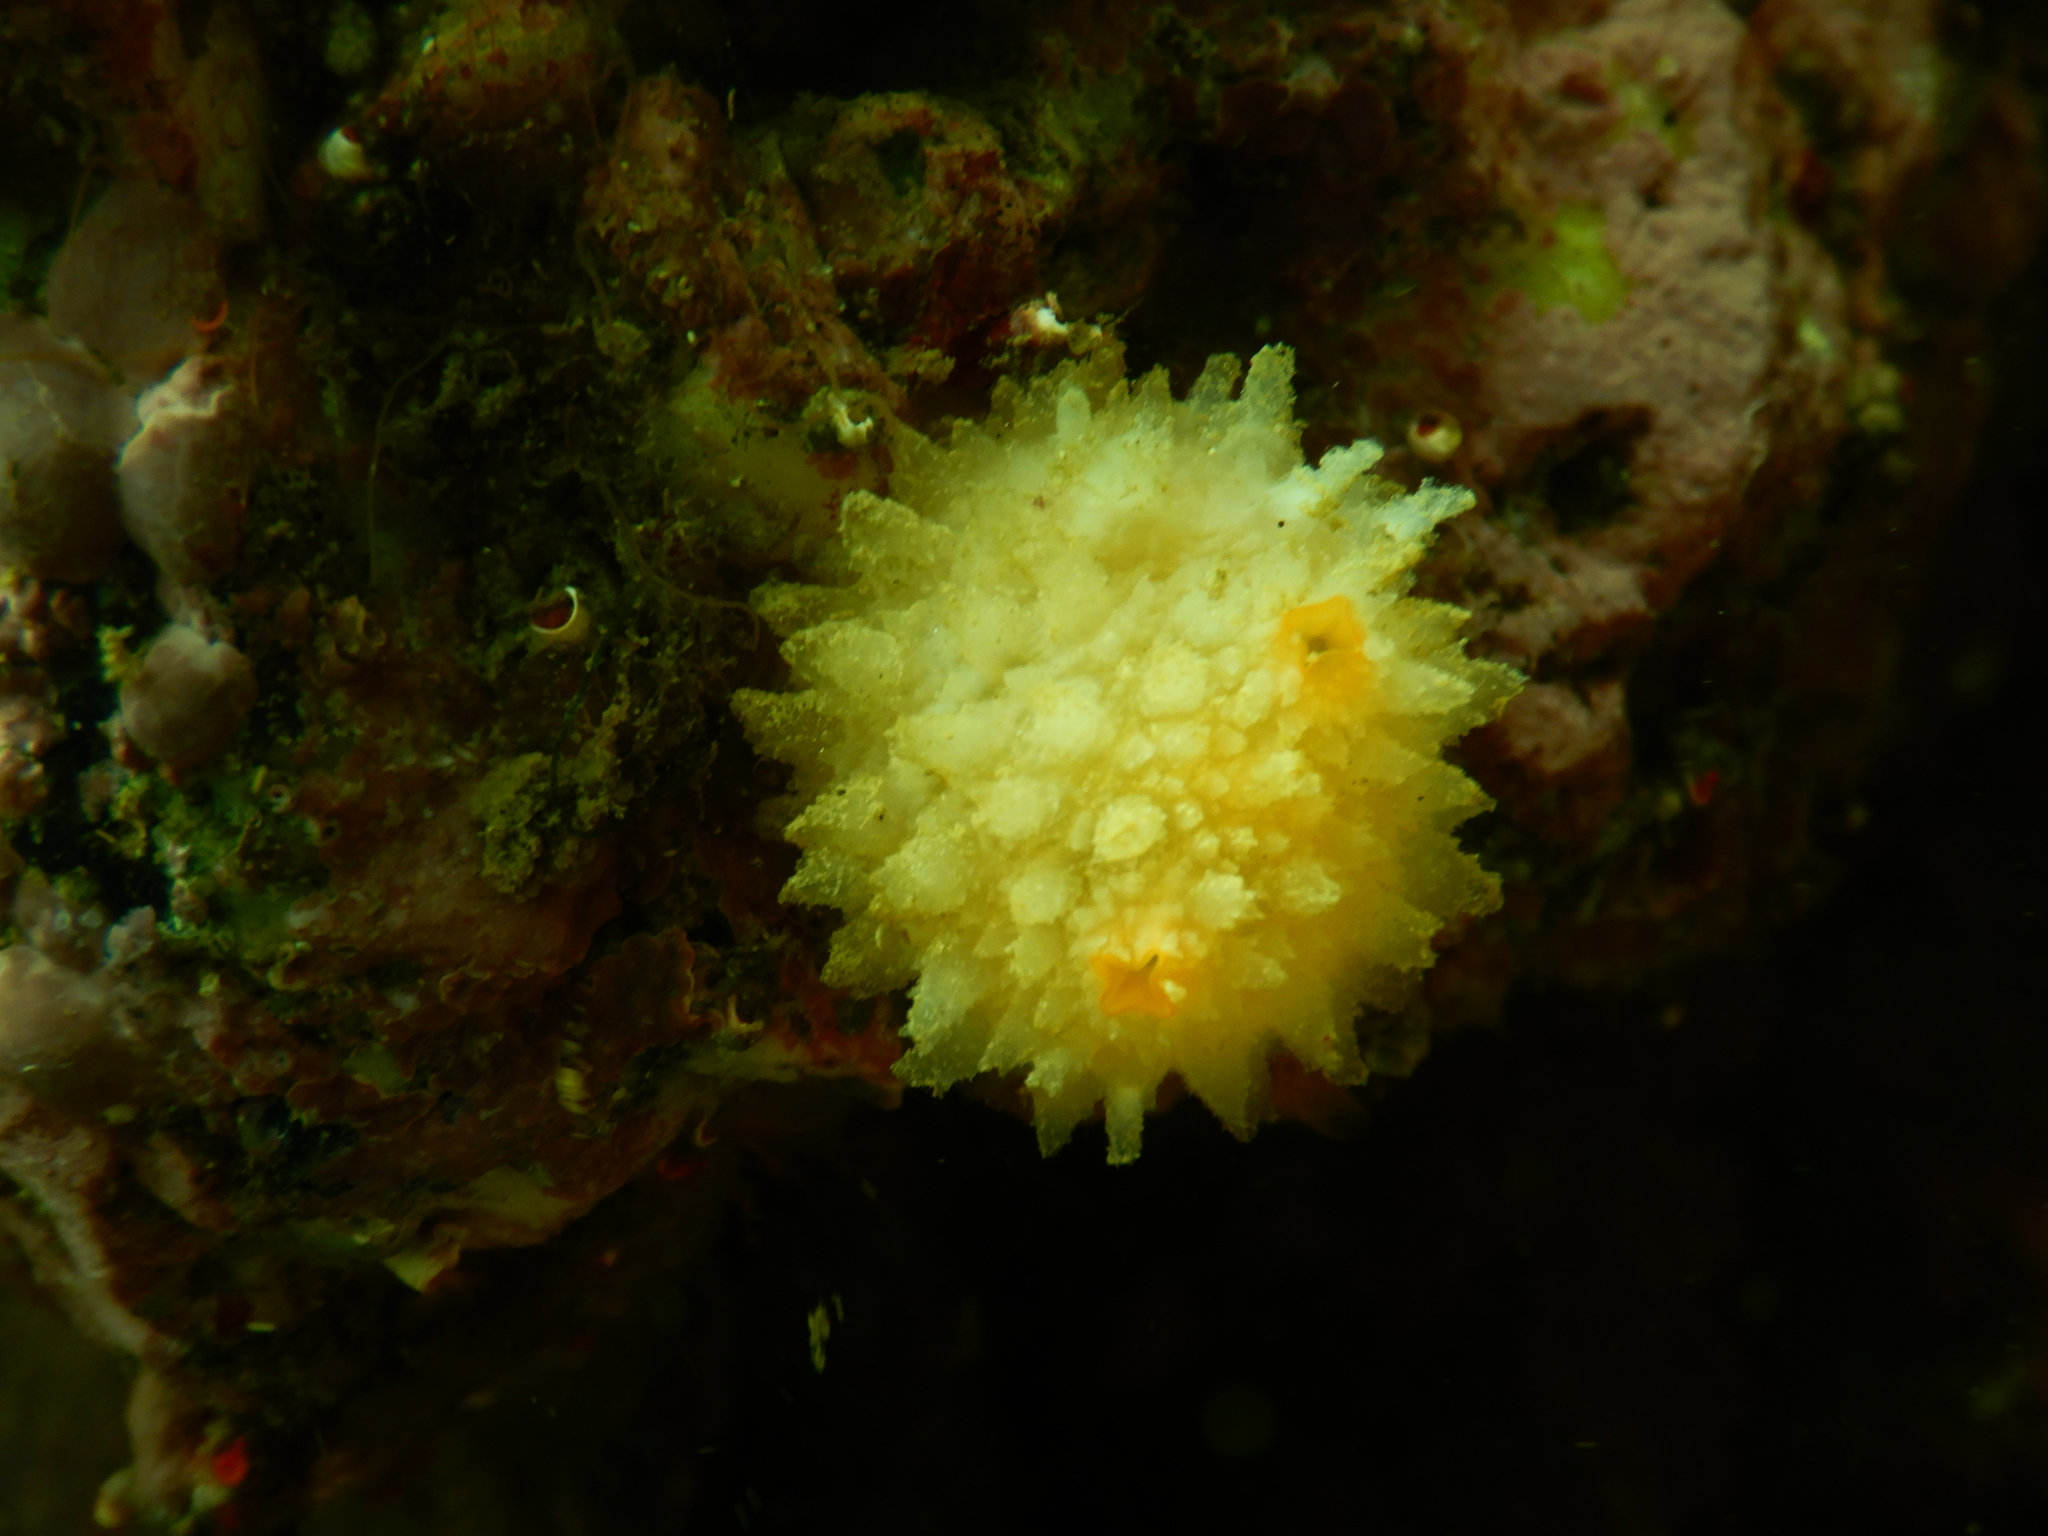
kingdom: Animalia
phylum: Chordata
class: Ascidiacea
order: Stolidobranchia
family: Styelidae
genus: Cnemidocarpa
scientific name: Cnemidocarpa verrucosa
